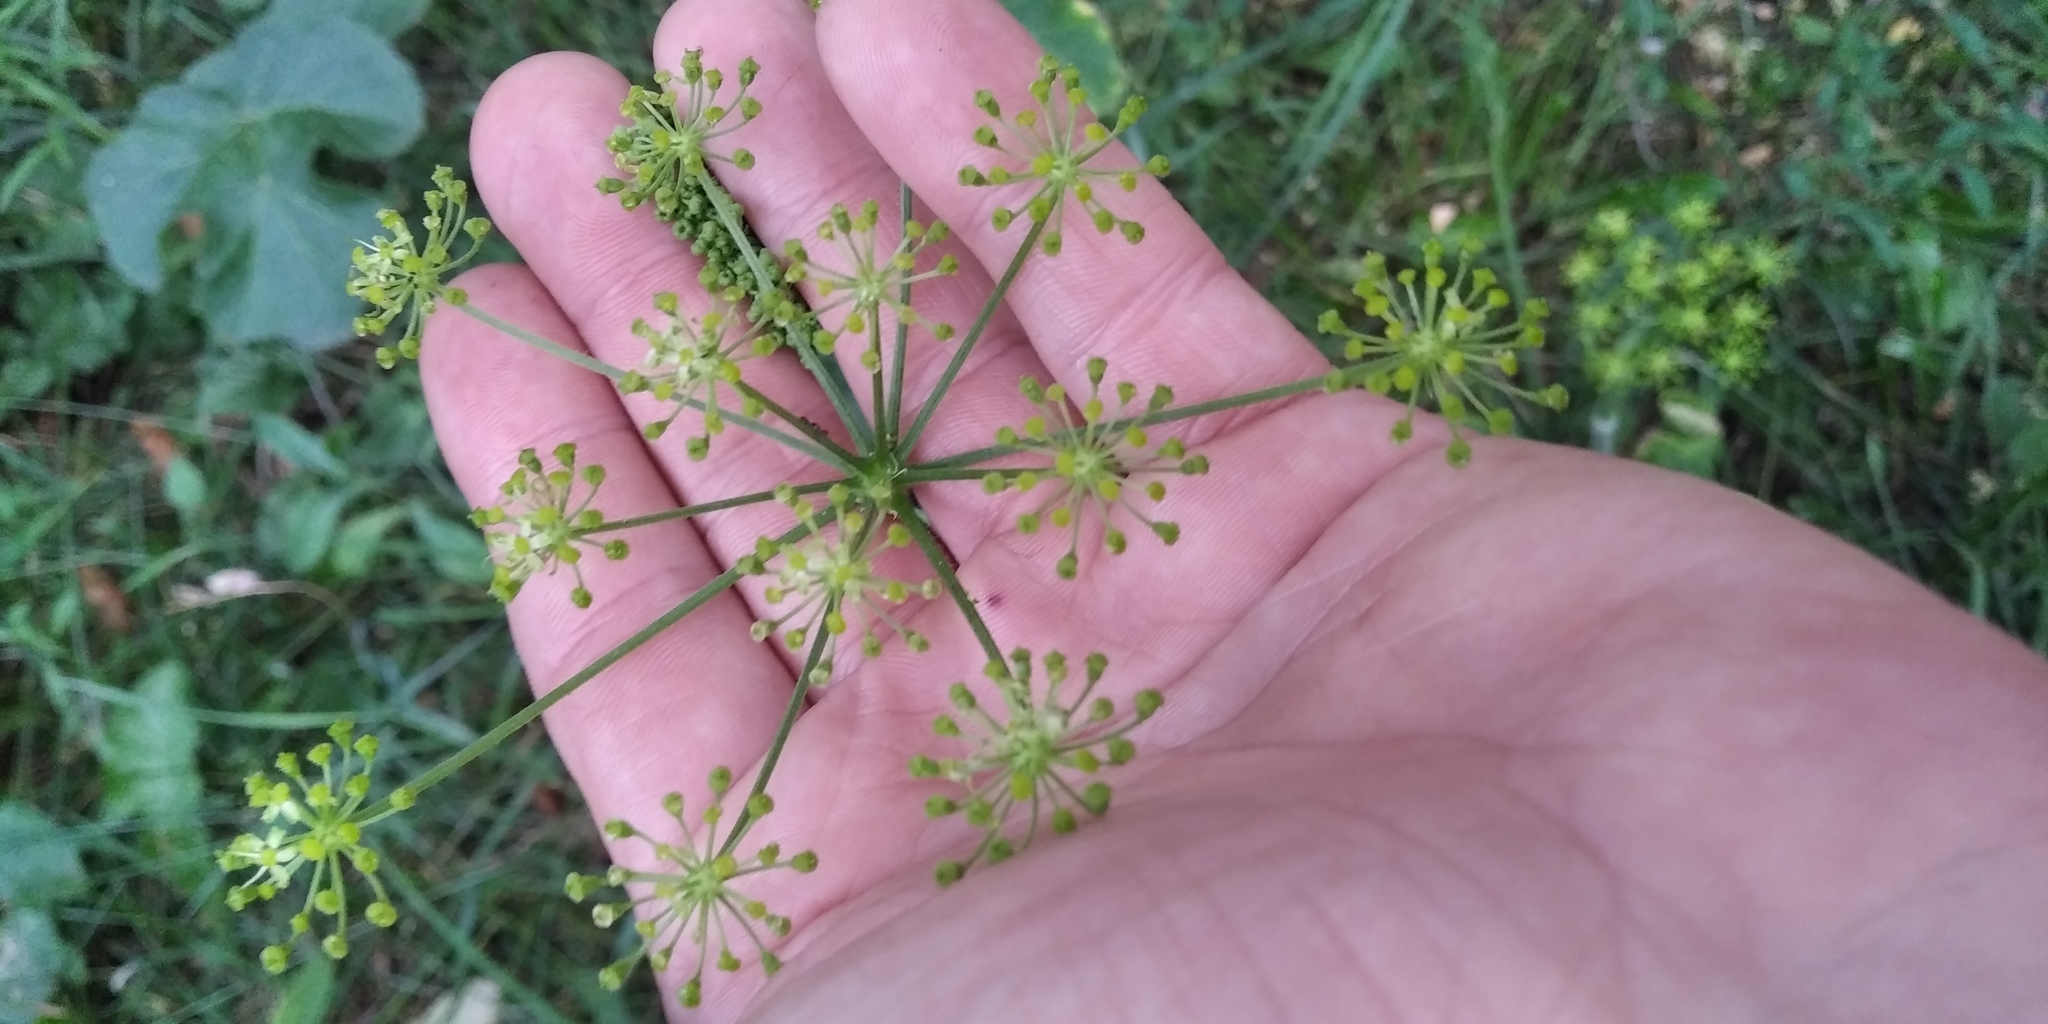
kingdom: Plantae
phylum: Tracheophyta
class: Magnoliopsida
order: Apiales
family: Apiaceae
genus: Heracleum
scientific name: Heracleum sphondylium
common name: Hogweed
